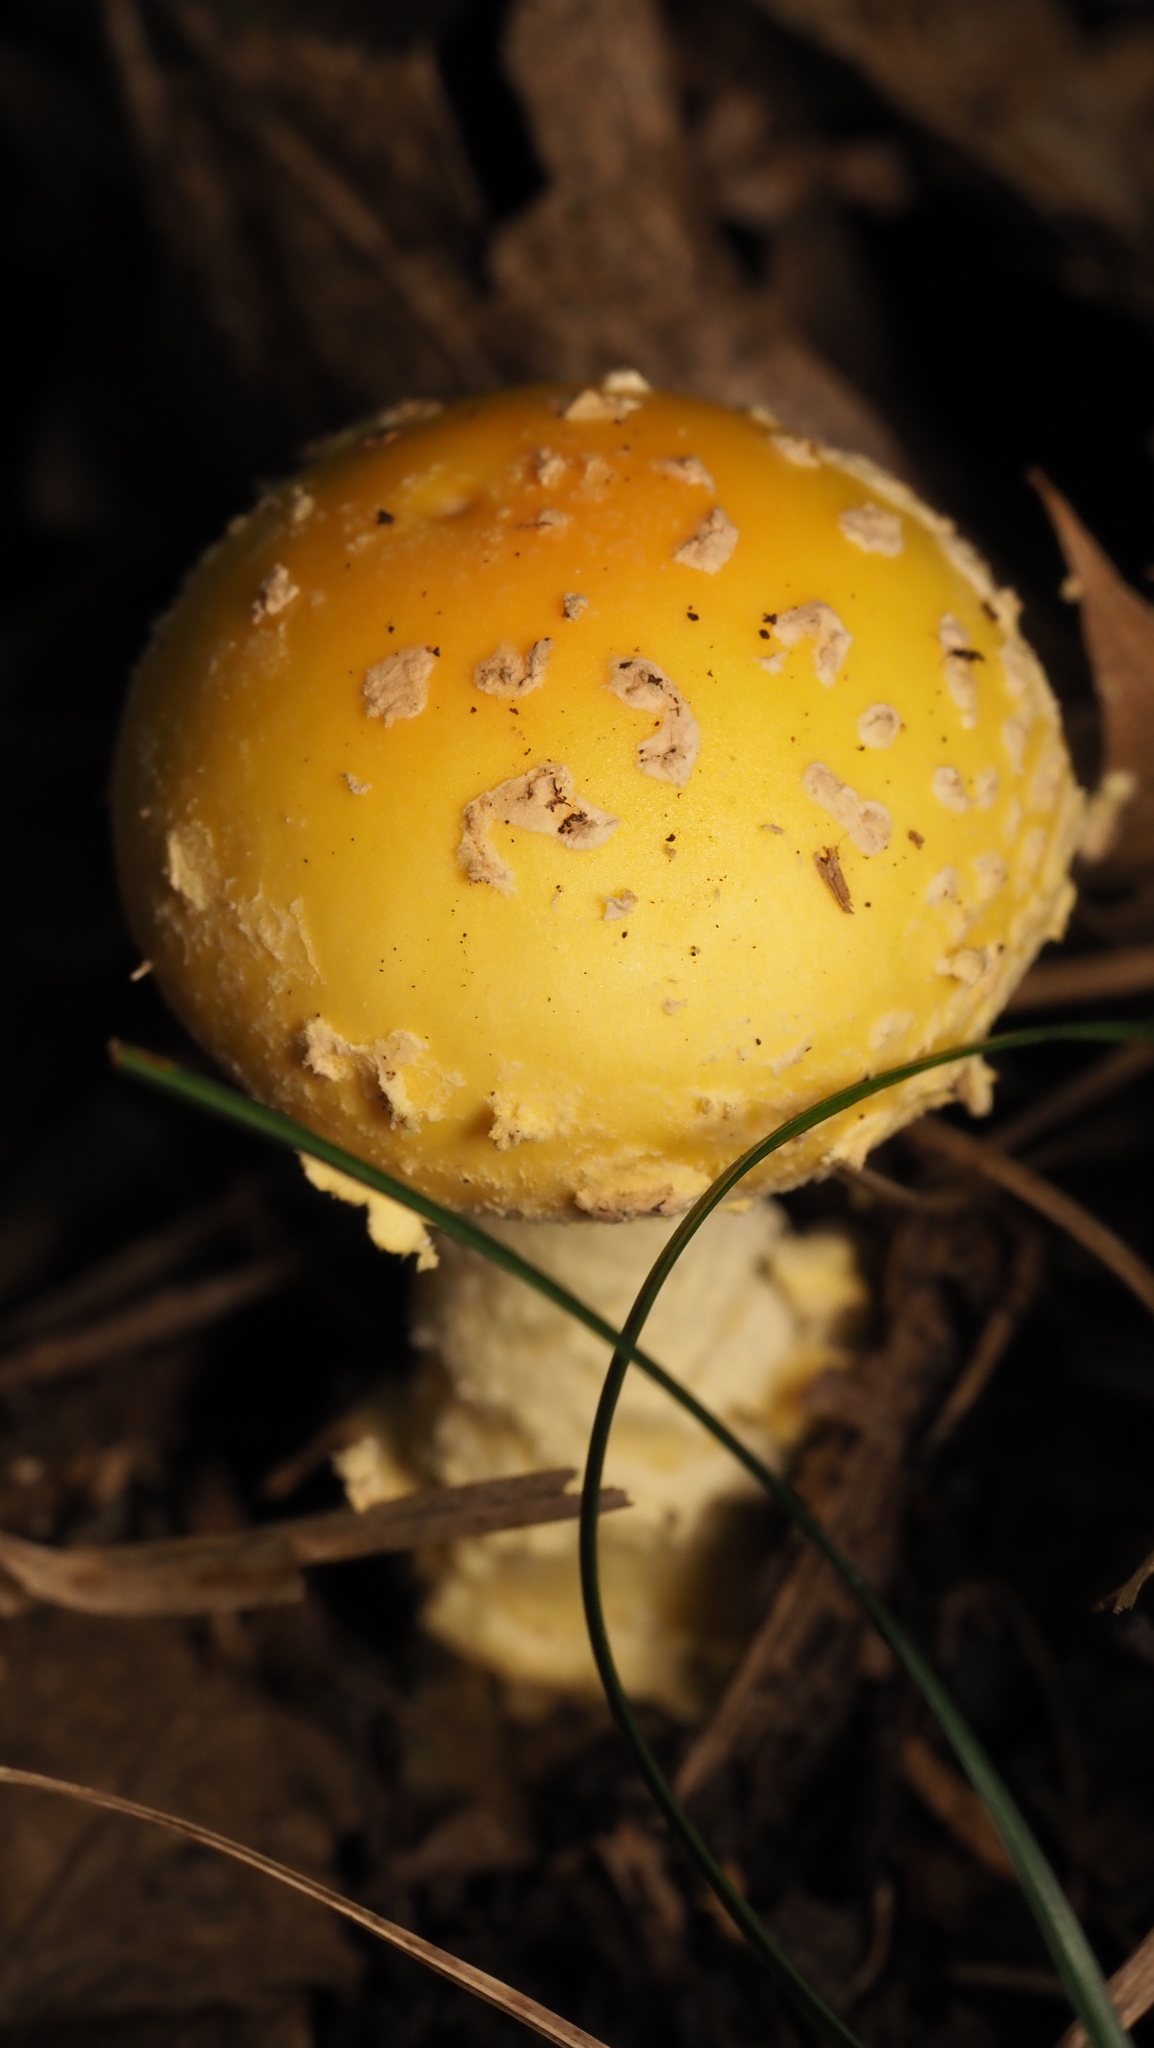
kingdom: Fungi
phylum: Basidiomycota
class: Agaricomycetes
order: Agaricales
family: Amanitaceae
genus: Amanita
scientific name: Amanita muscaria
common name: Fly agaric
